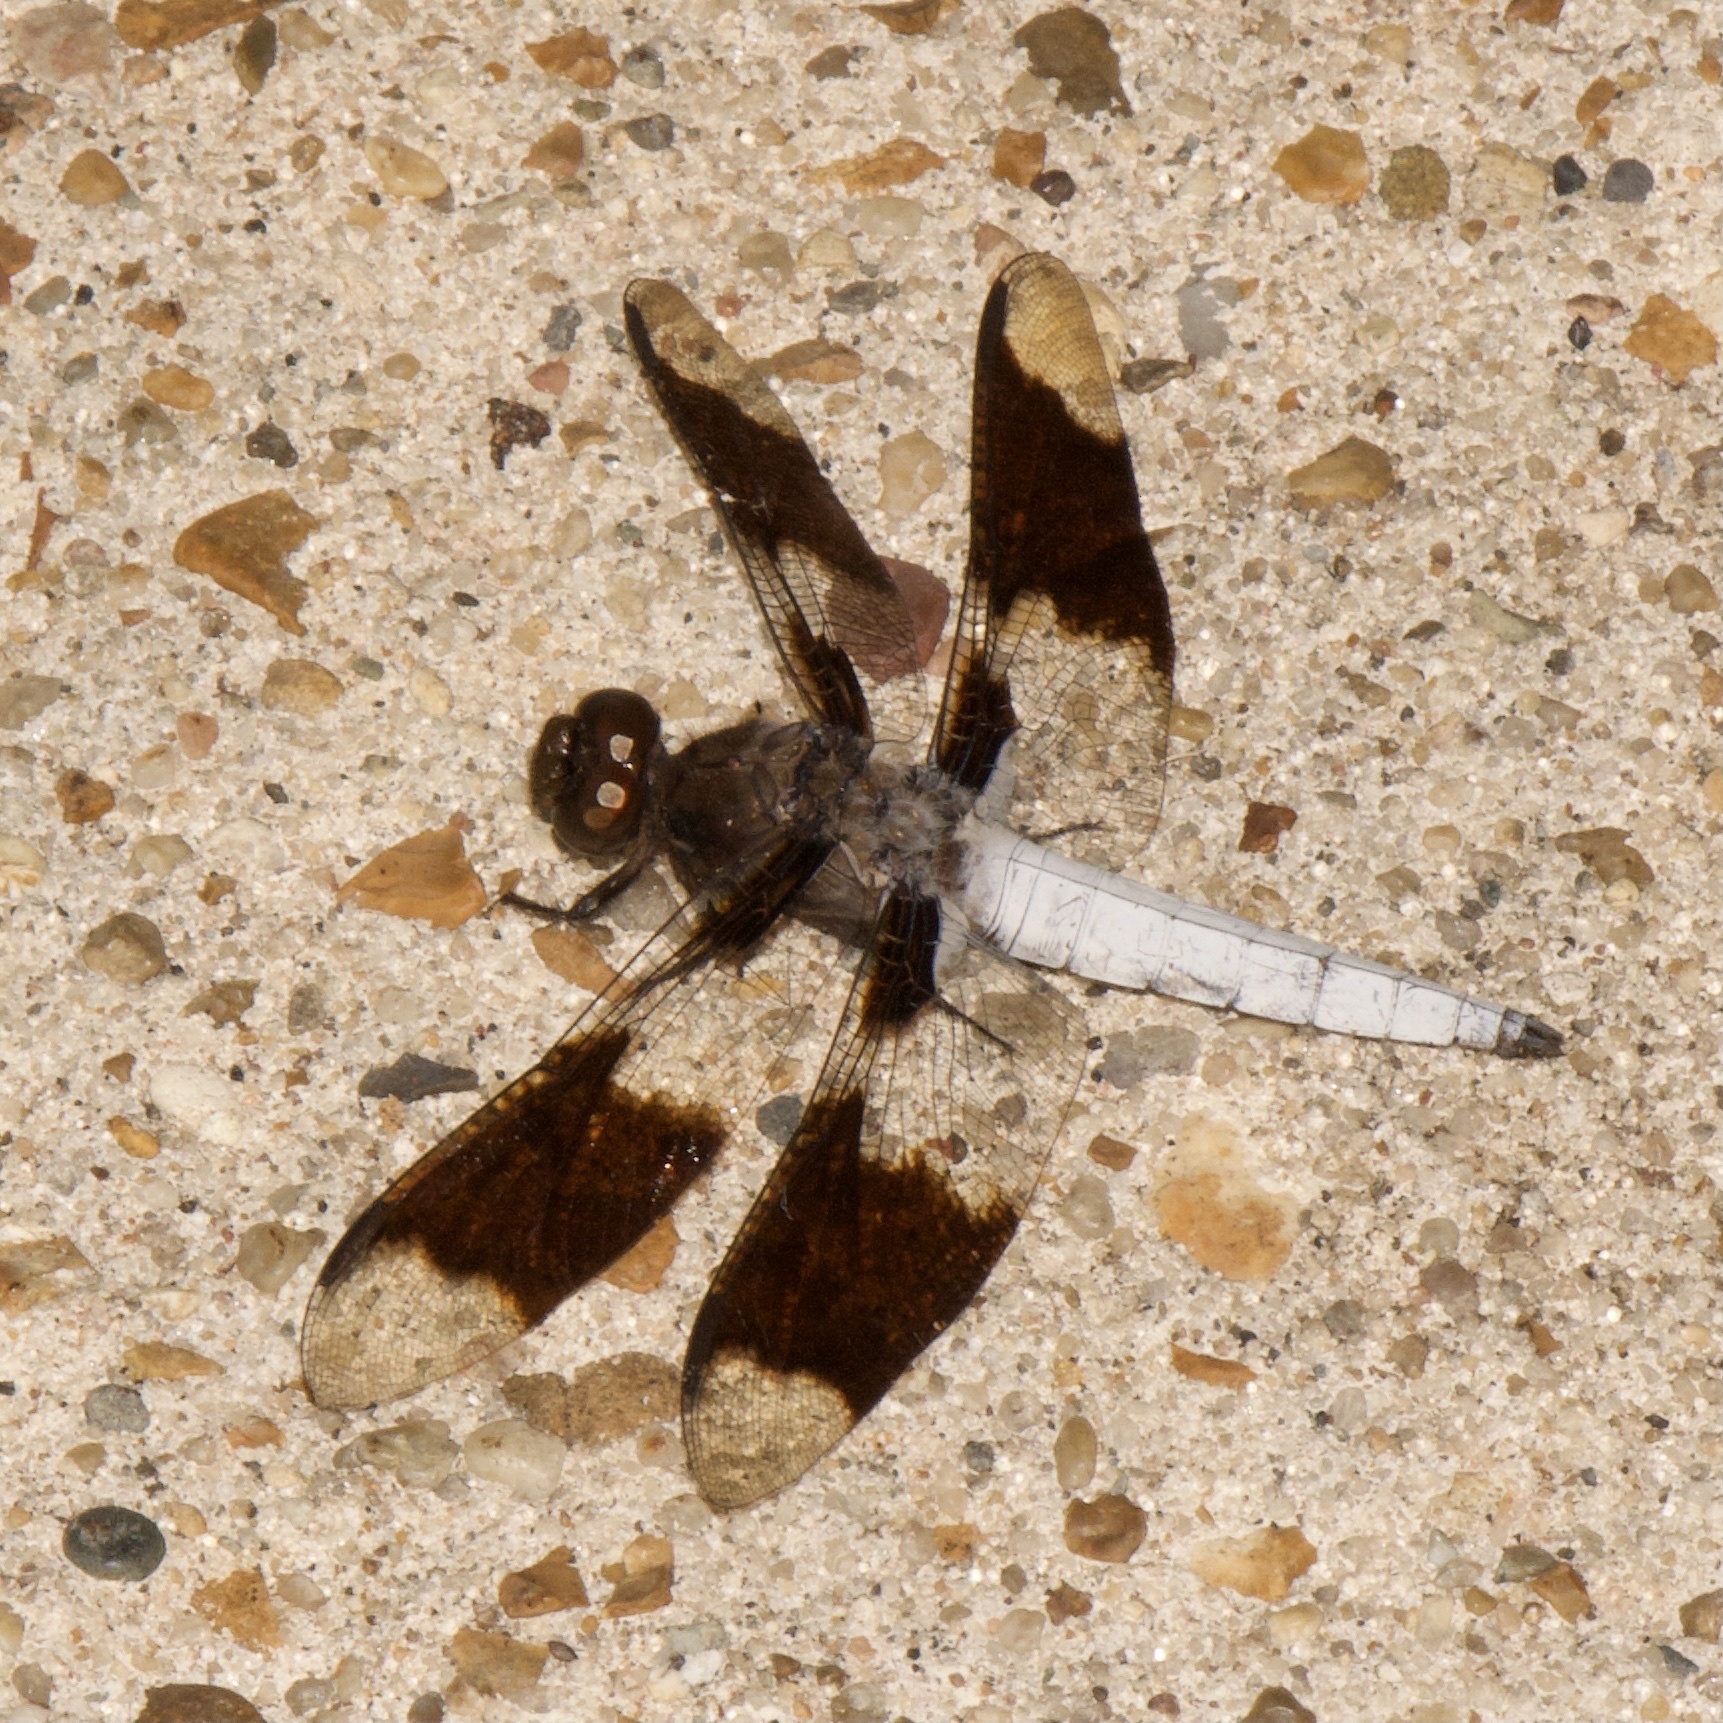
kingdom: Animalia
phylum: Arthropoda
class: Insecta
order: Odonata
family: Libellulidae
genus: Plathemis
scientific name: Plathemis lydia
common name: Common whitetail
